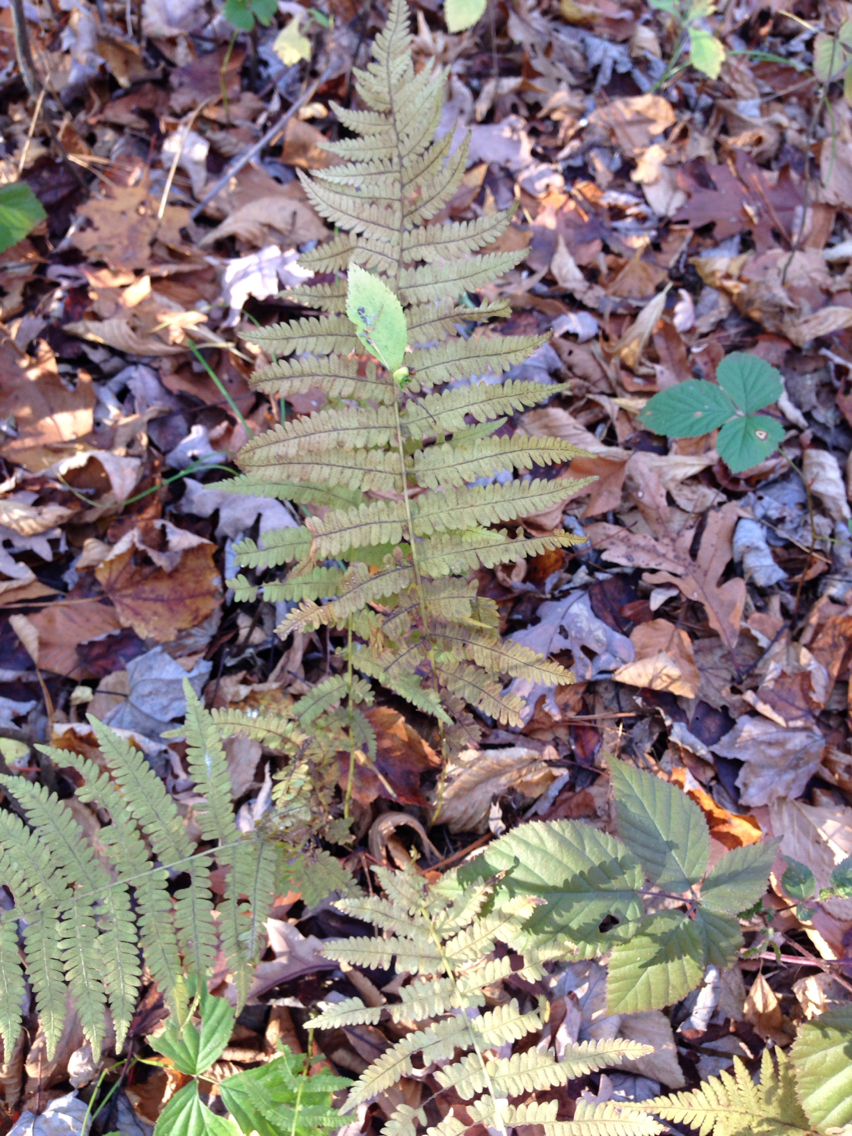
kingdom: Plantae
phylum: Tracheophyta
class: Polypodiopsida
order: Polypodiales
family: Thelypteridaceae
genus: Amauropelta
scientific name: Amauropelta noveboracensis
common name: New york fern
